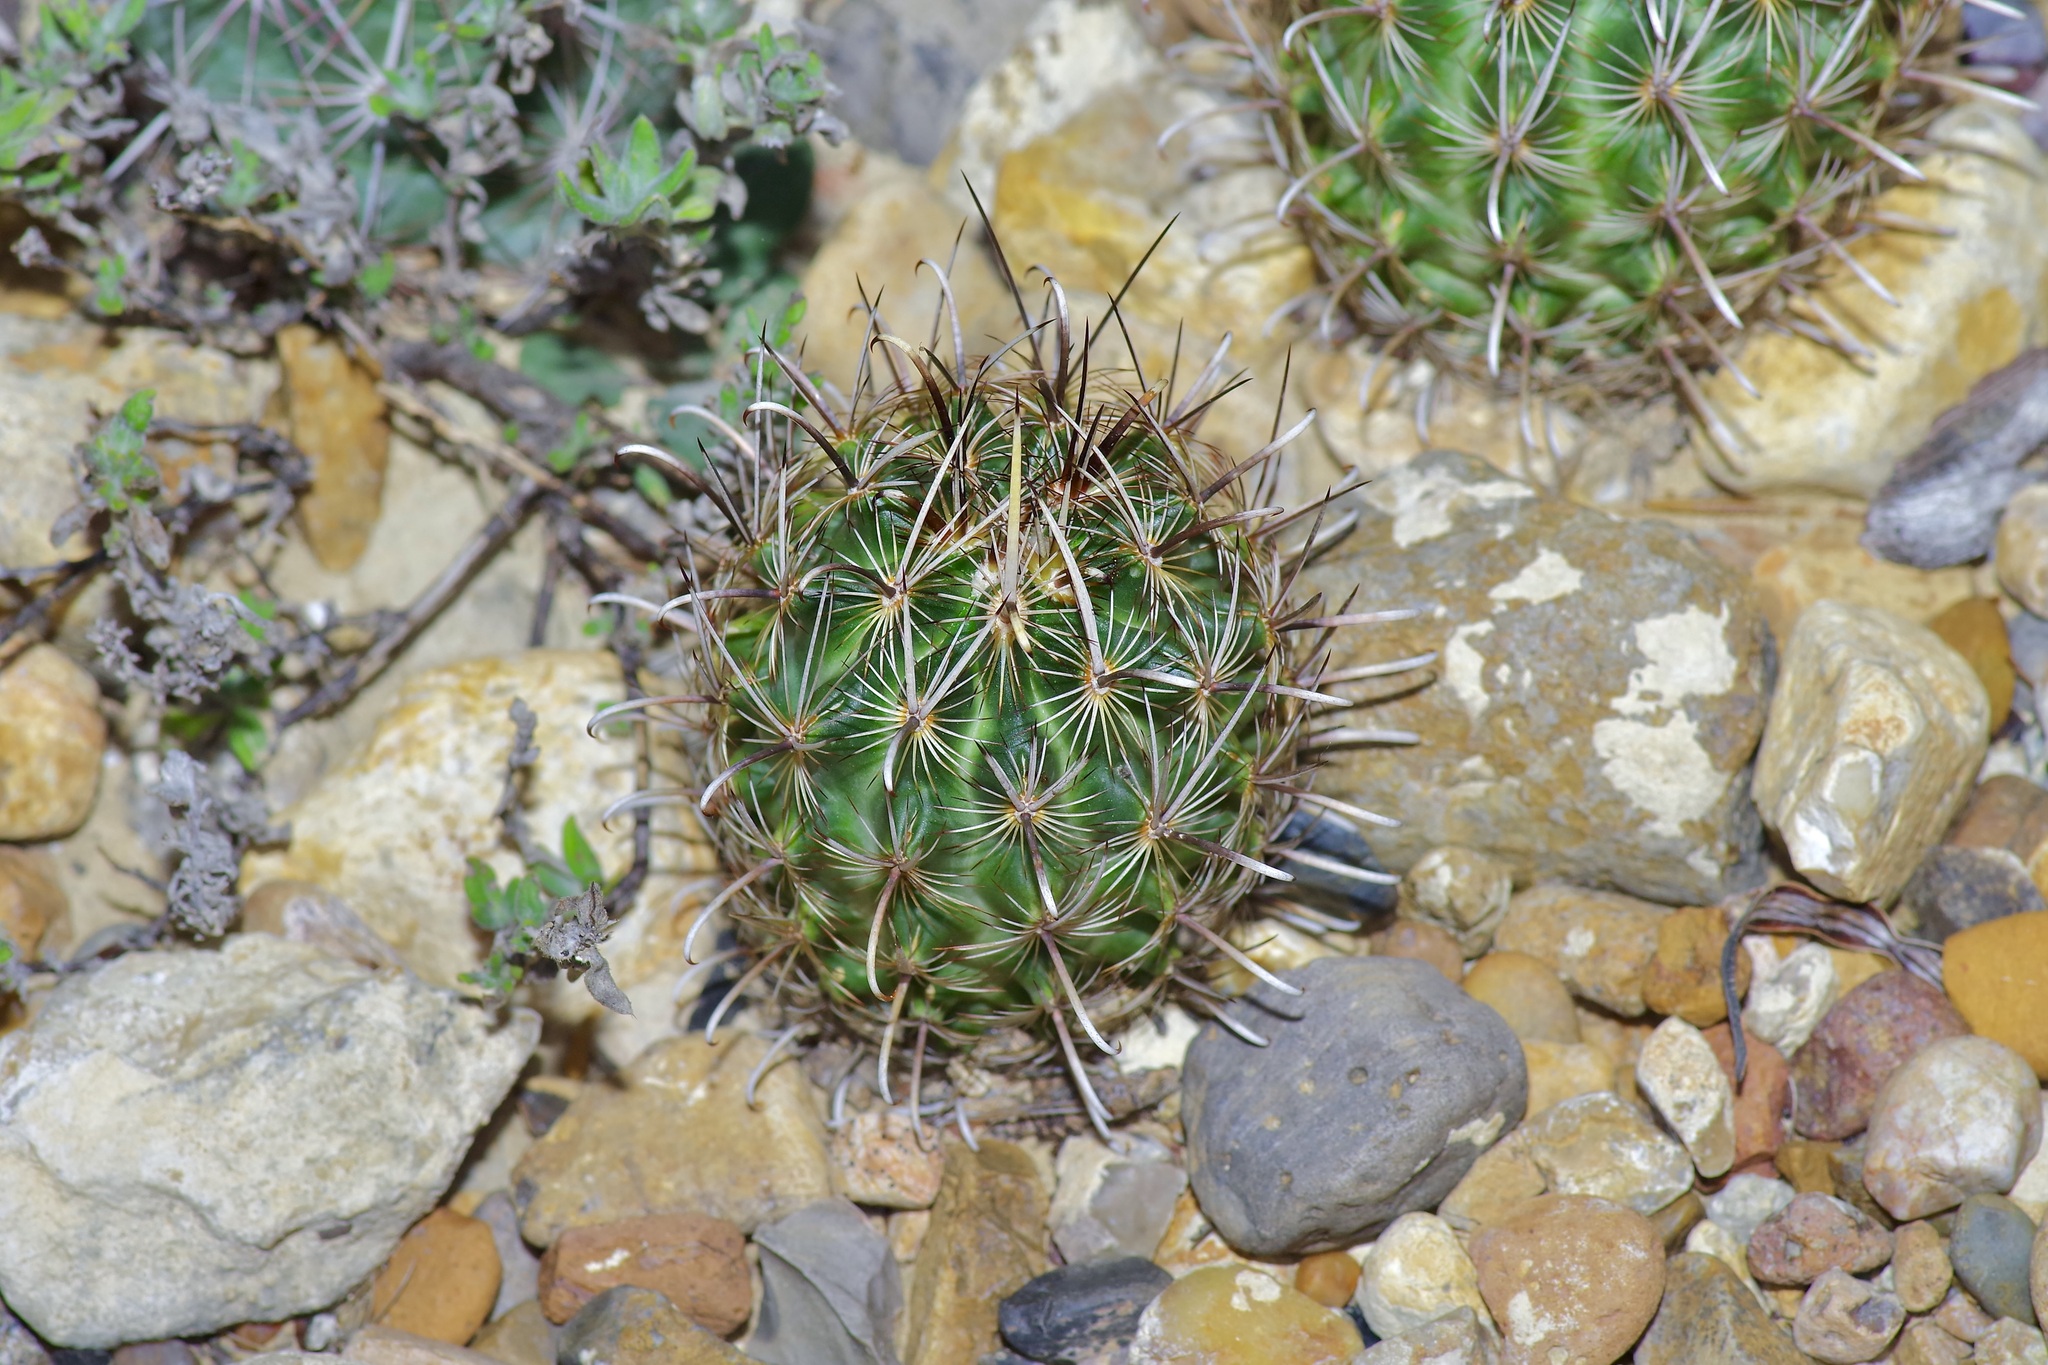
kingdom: Plantae
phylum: Tracheophyta
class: Magnoliopsida
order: Caryophyllales
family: Cactaceae
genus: Sclerocactus
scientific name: Sclerocactus scheerii
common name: Scheer's fish-hook cactus
